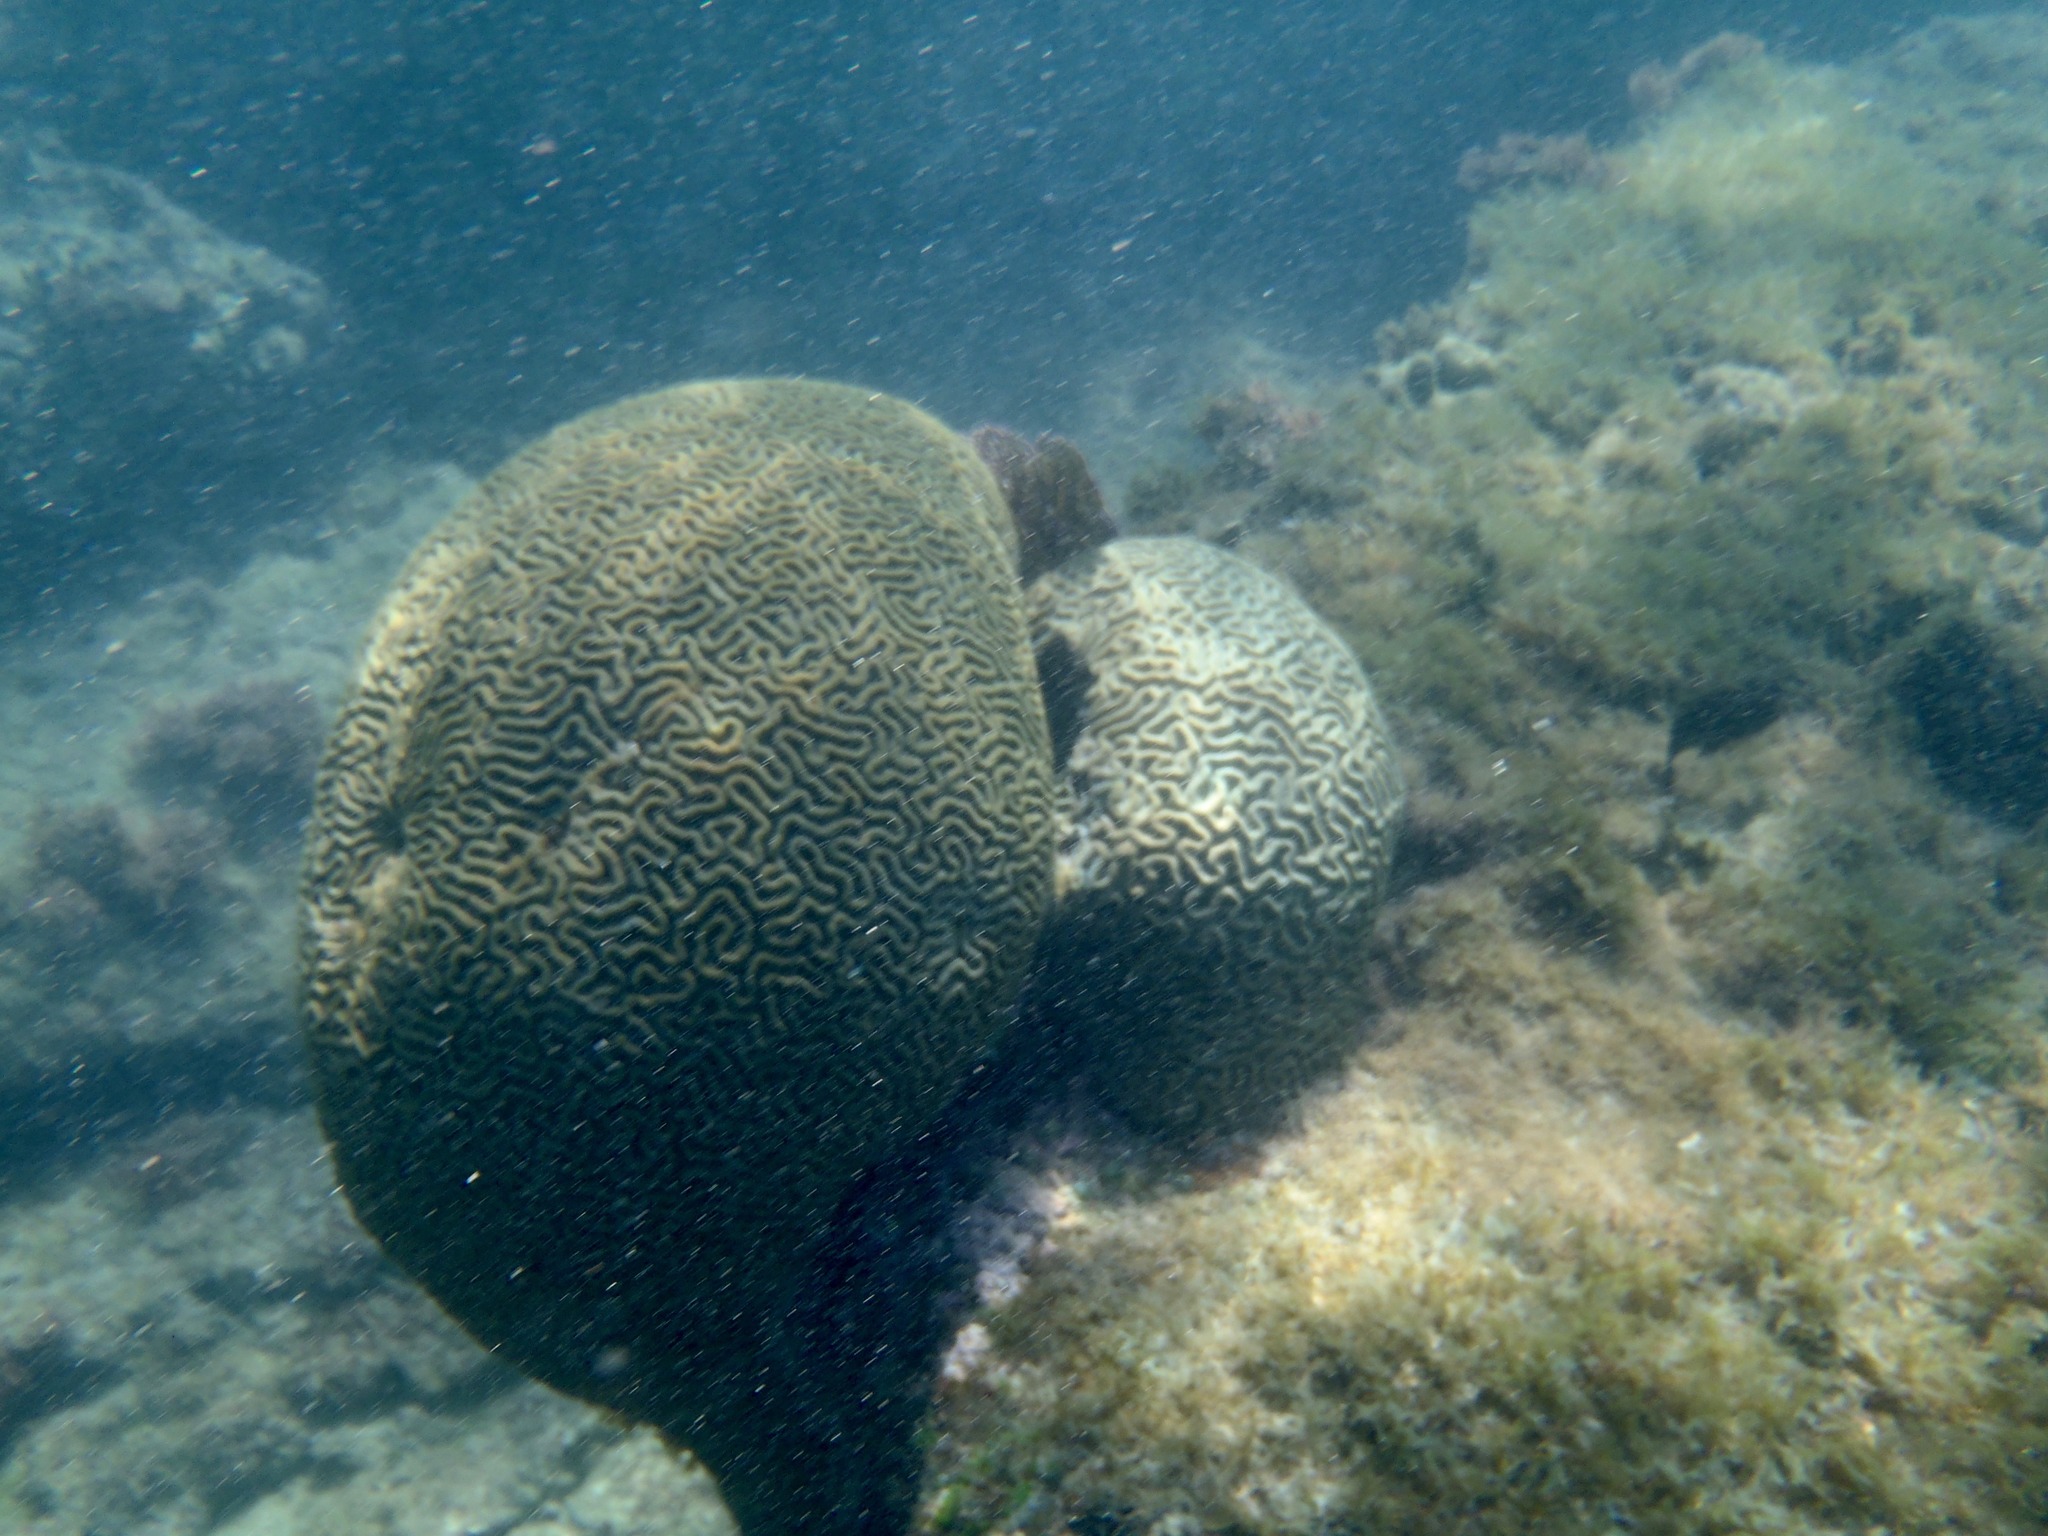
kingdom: Animalia
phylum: Cnidaria
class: Anthozoa
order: Scleractinia
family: Faviidae
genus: Pseudodiploria
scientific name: Pseudodiploria strigosa
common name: Symmetrical brain coral
